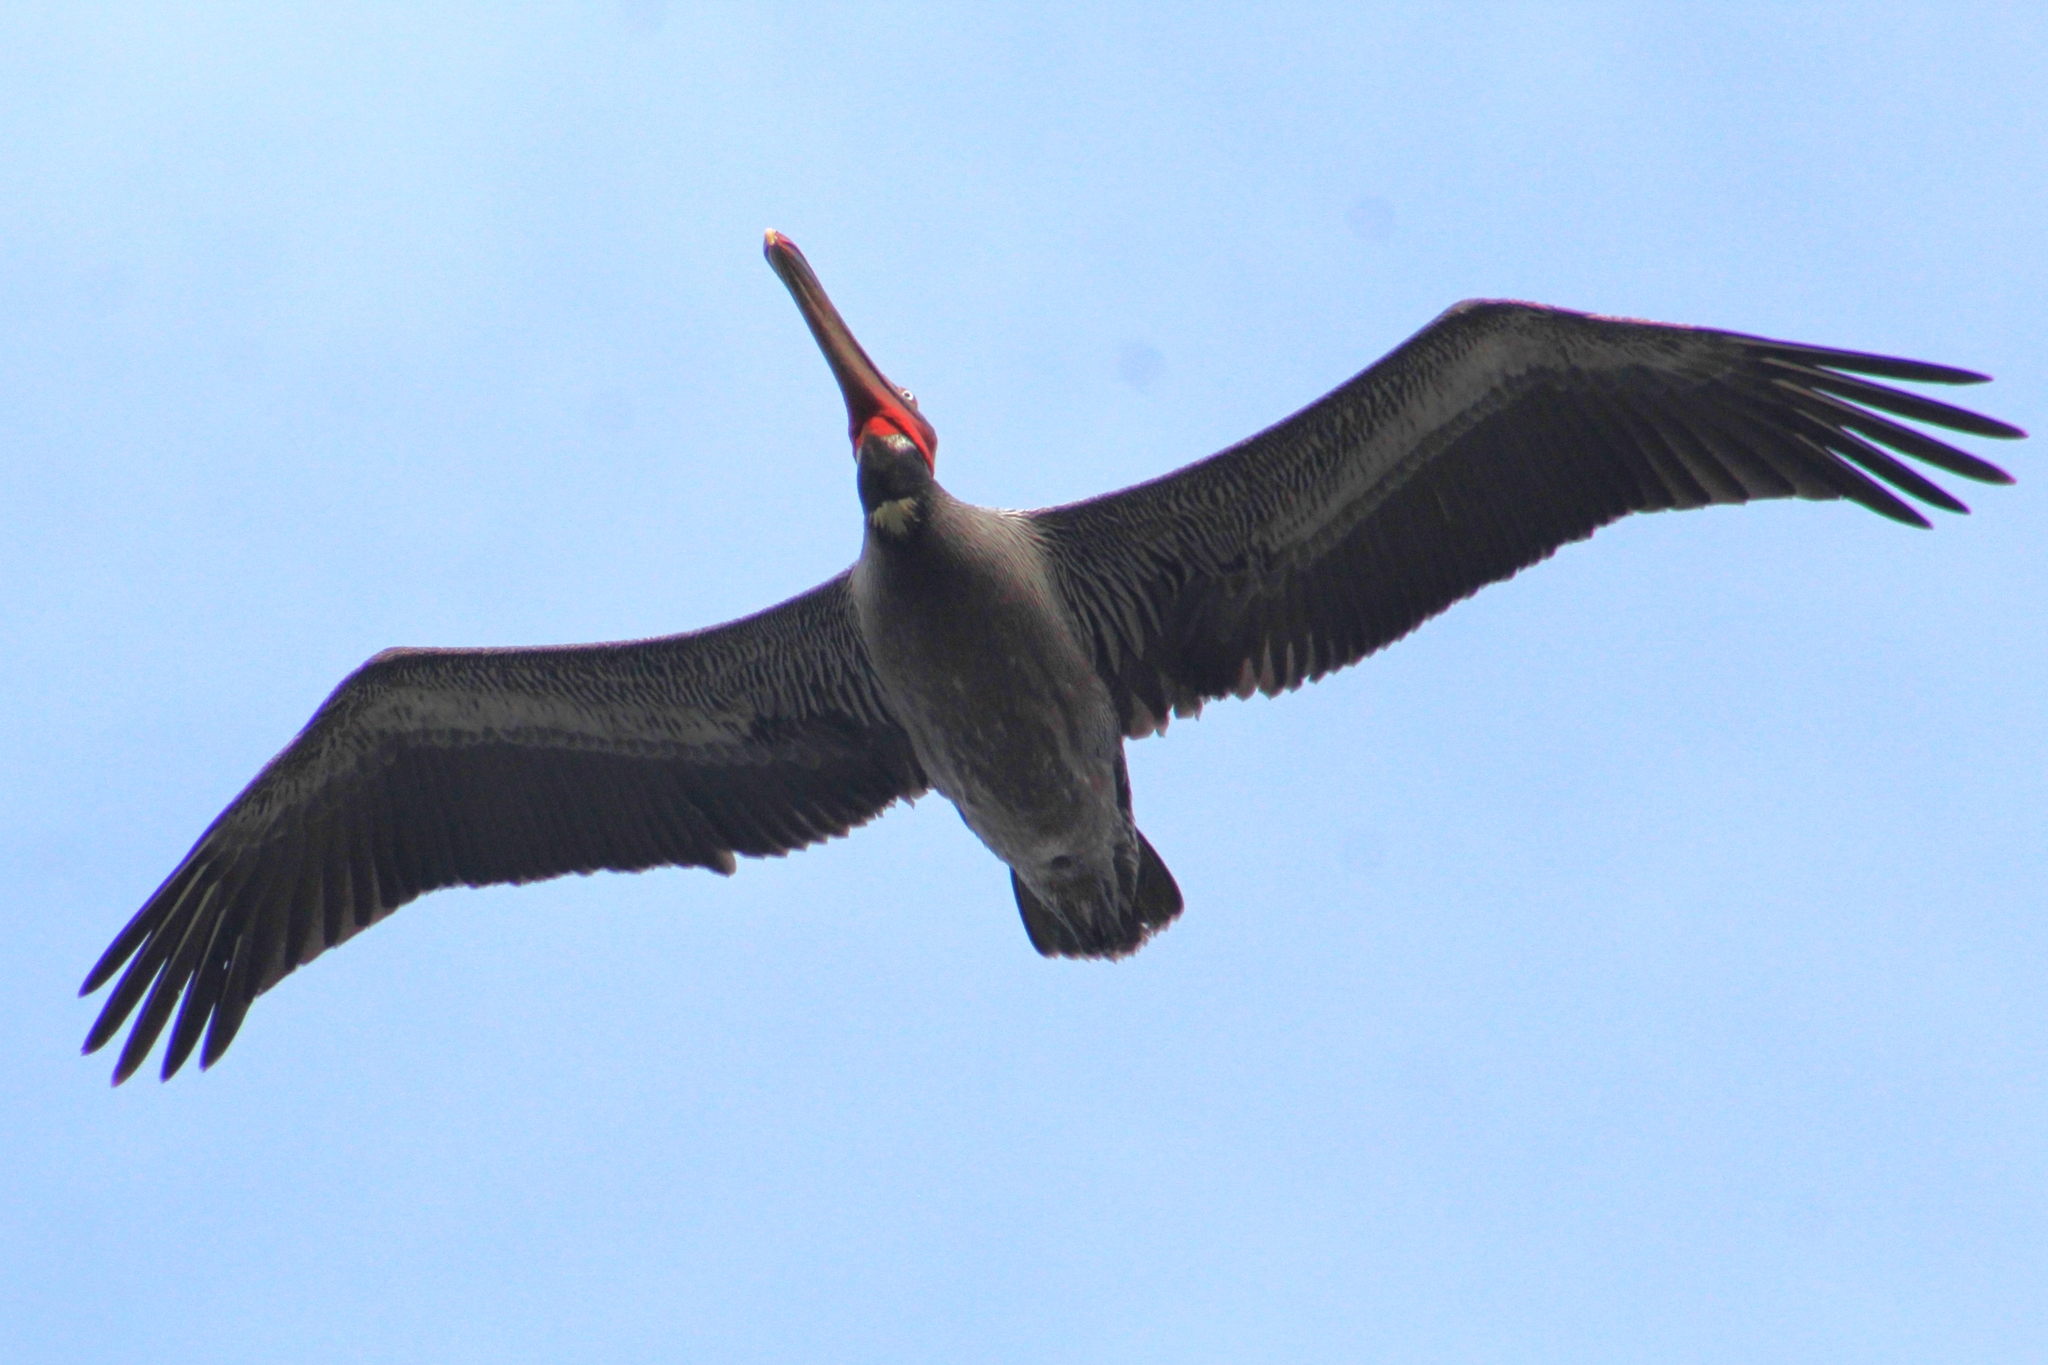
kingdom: Animalia
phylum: Chordata
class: Aves
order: Pelecaniformes
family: Pelecanidae
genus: Pelecanus
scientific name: Pelecanus occidentalis
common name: Brown pelican
